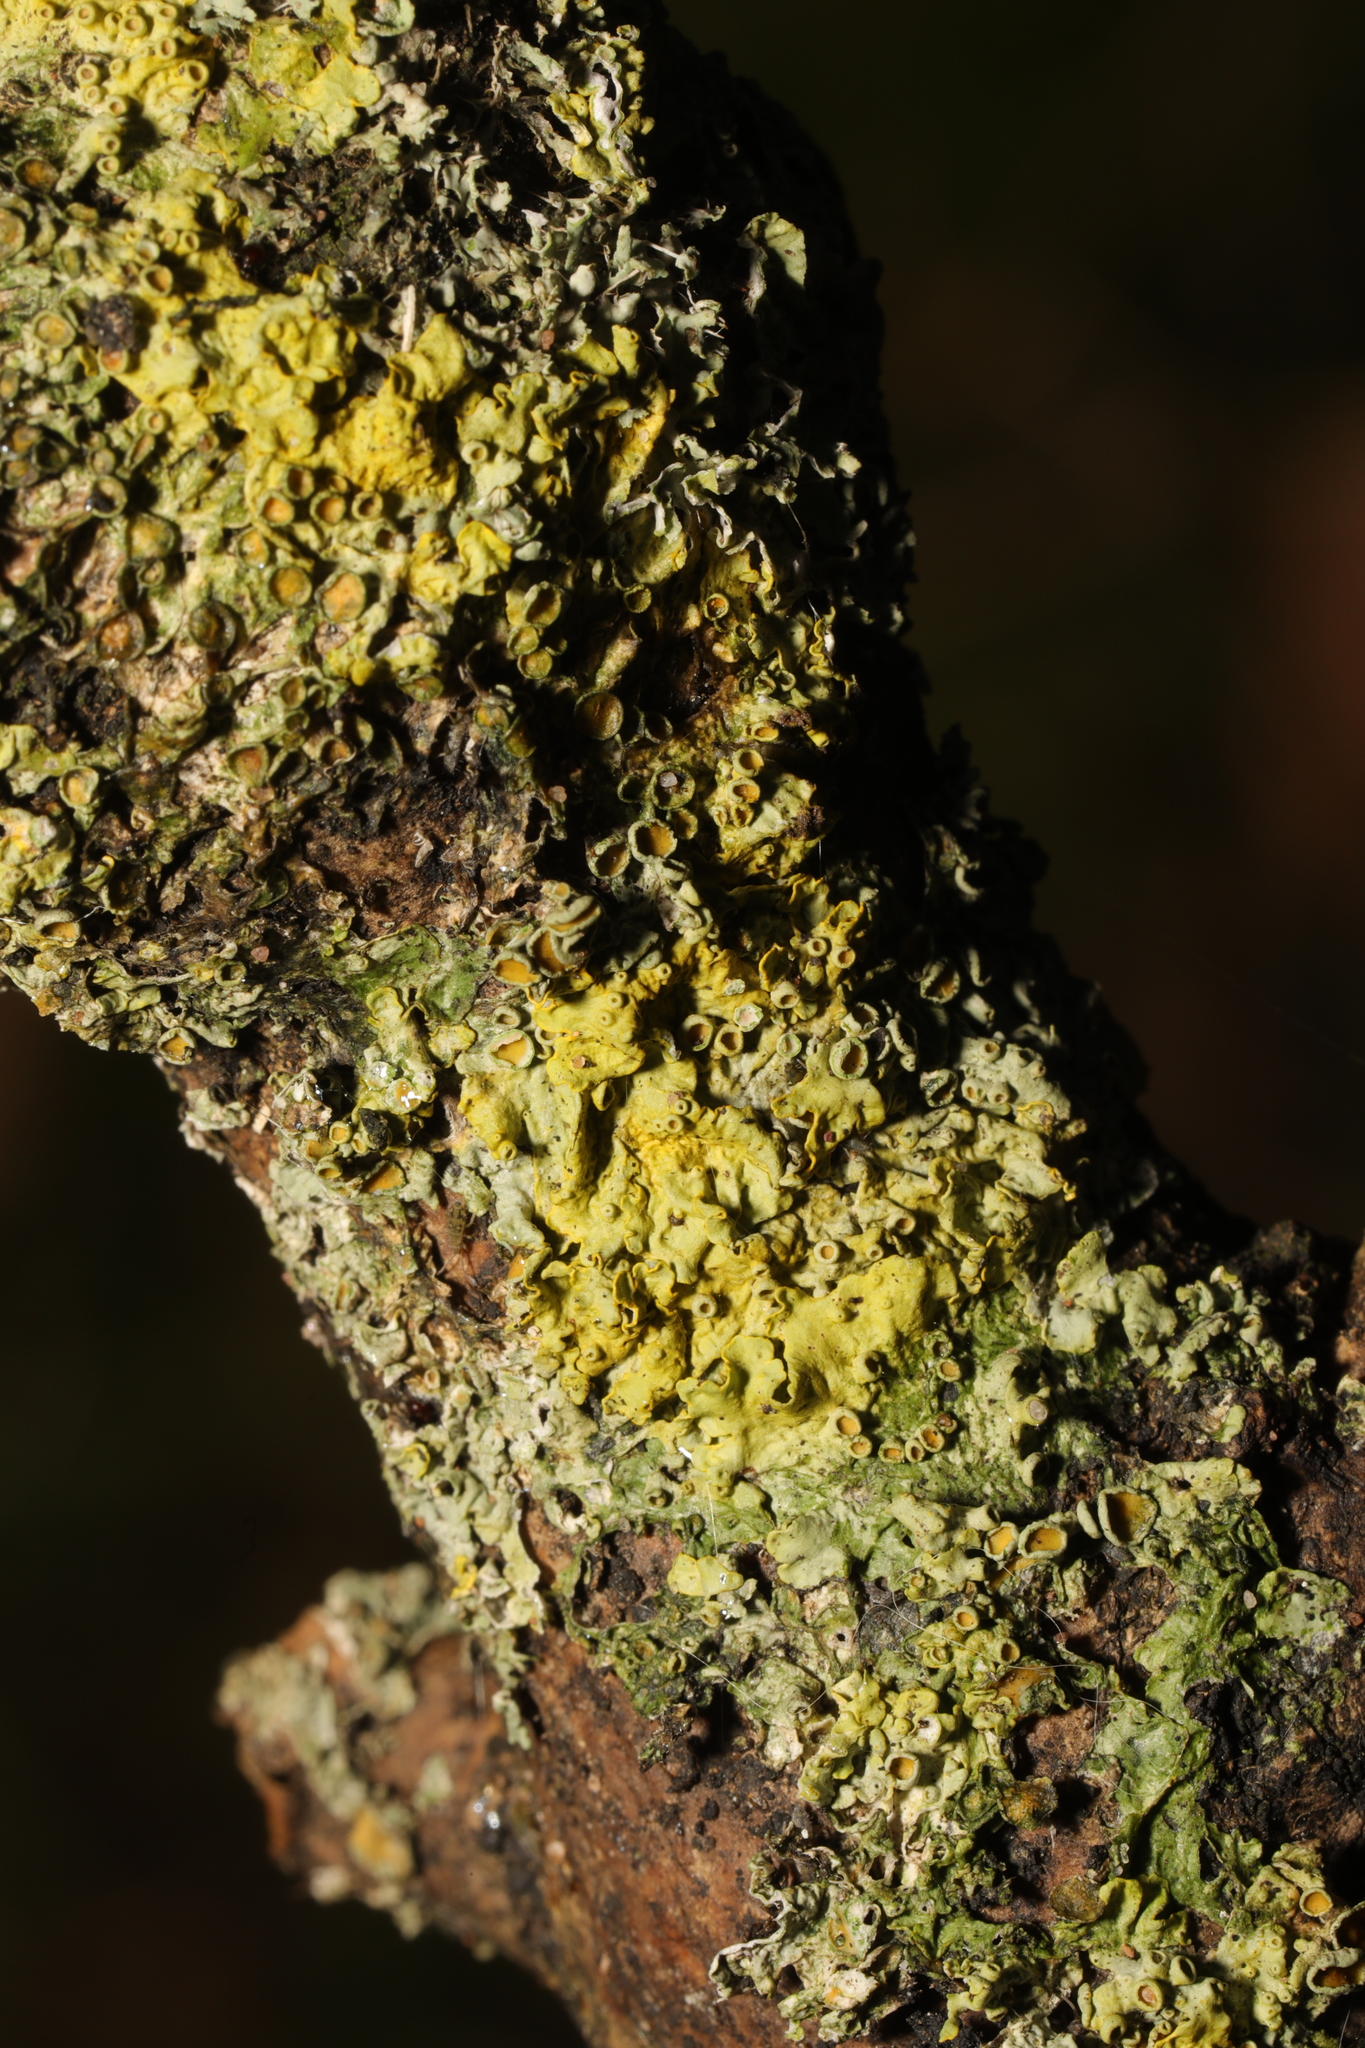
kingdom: Fungi
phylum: Ascomycota
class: Lecanoromycetes
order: Teloschistales
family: Teloschistaceae
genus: Xanthoria
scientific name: Xanthoria parietina
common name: Common orange lichen
